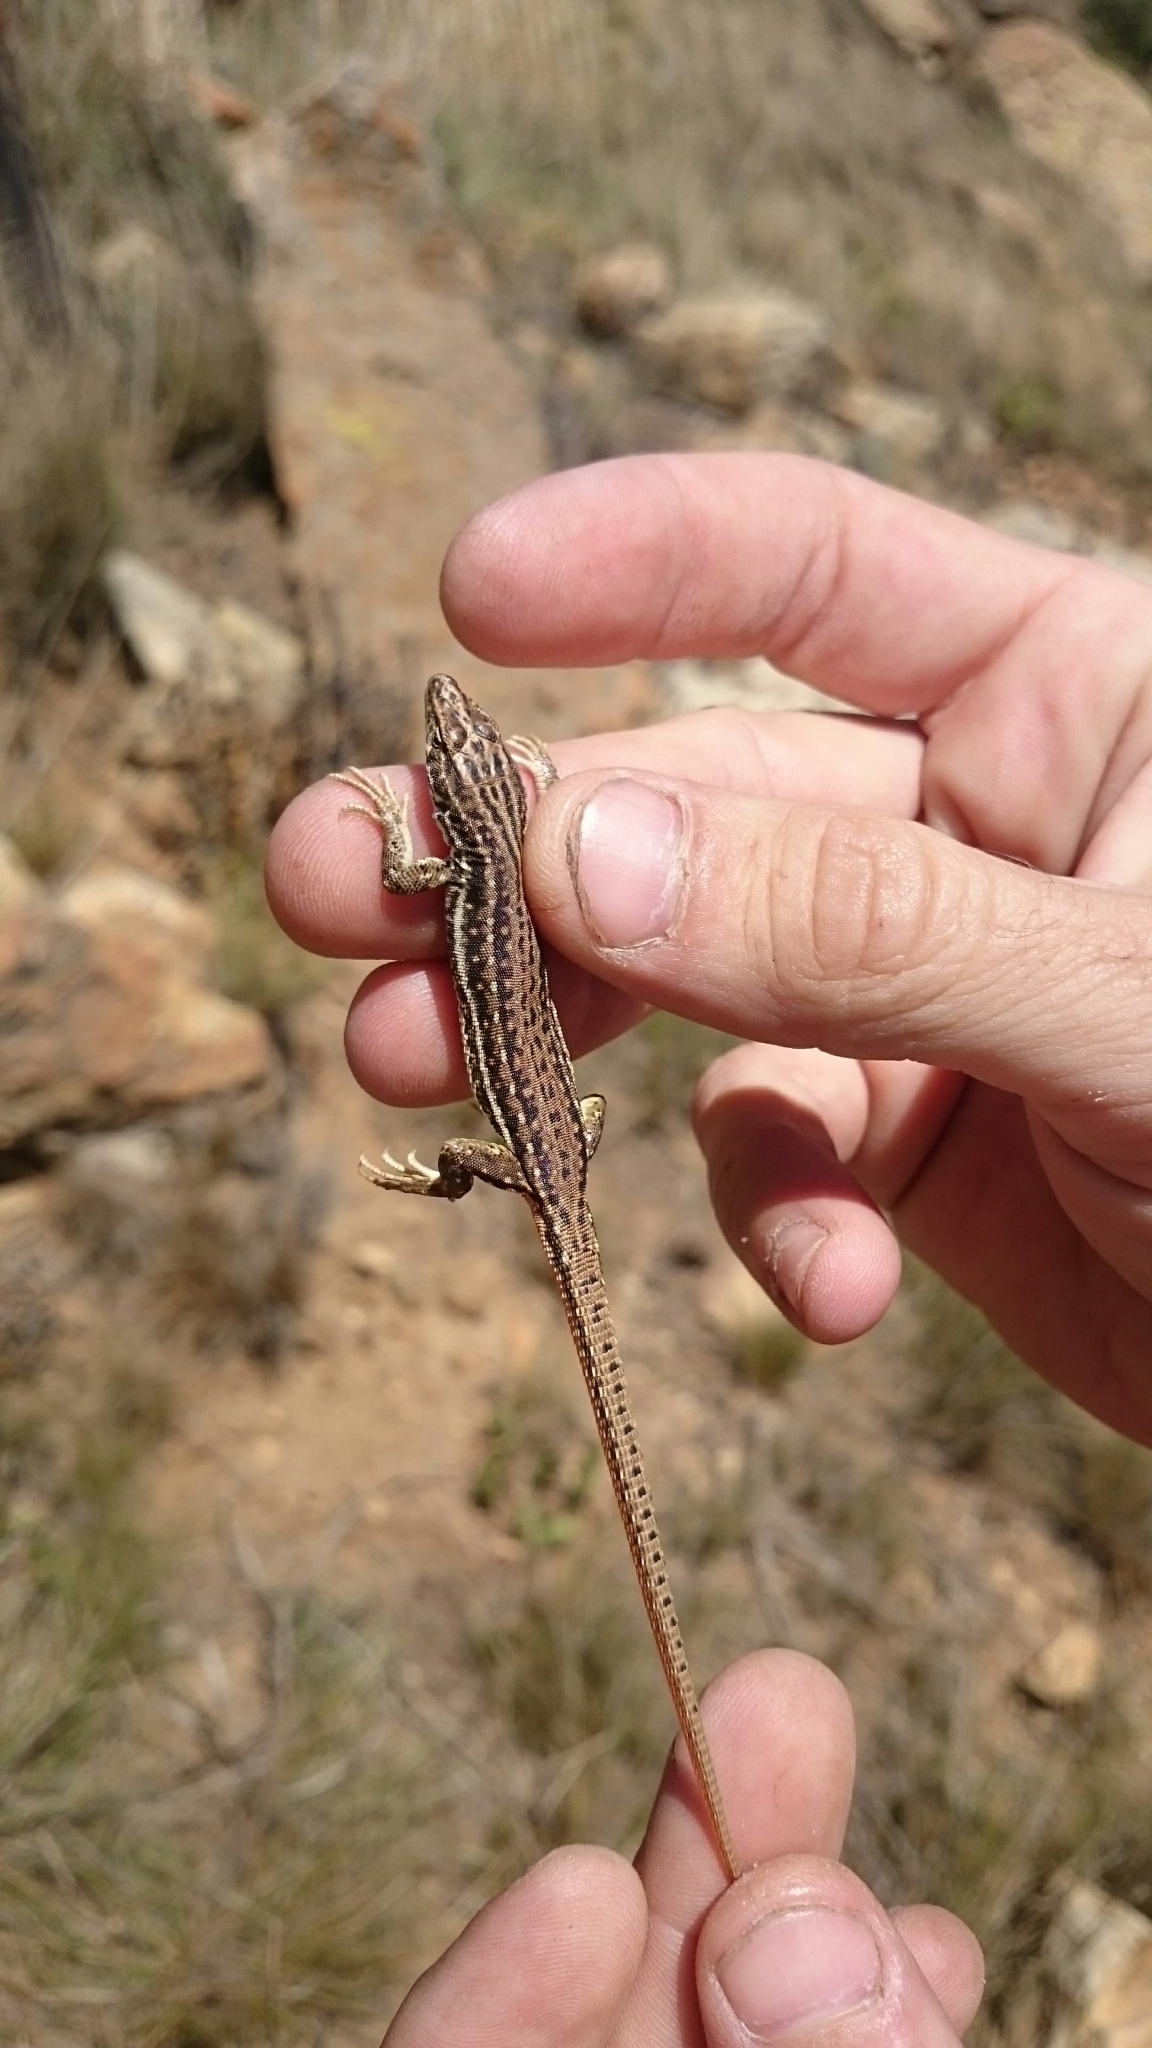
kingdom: Animalia
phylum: Chordata
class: Squamata
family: Lacertidae
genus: Pedioplanis
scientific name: Pedioplanis burchelli
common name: Burchell's sand lizard
